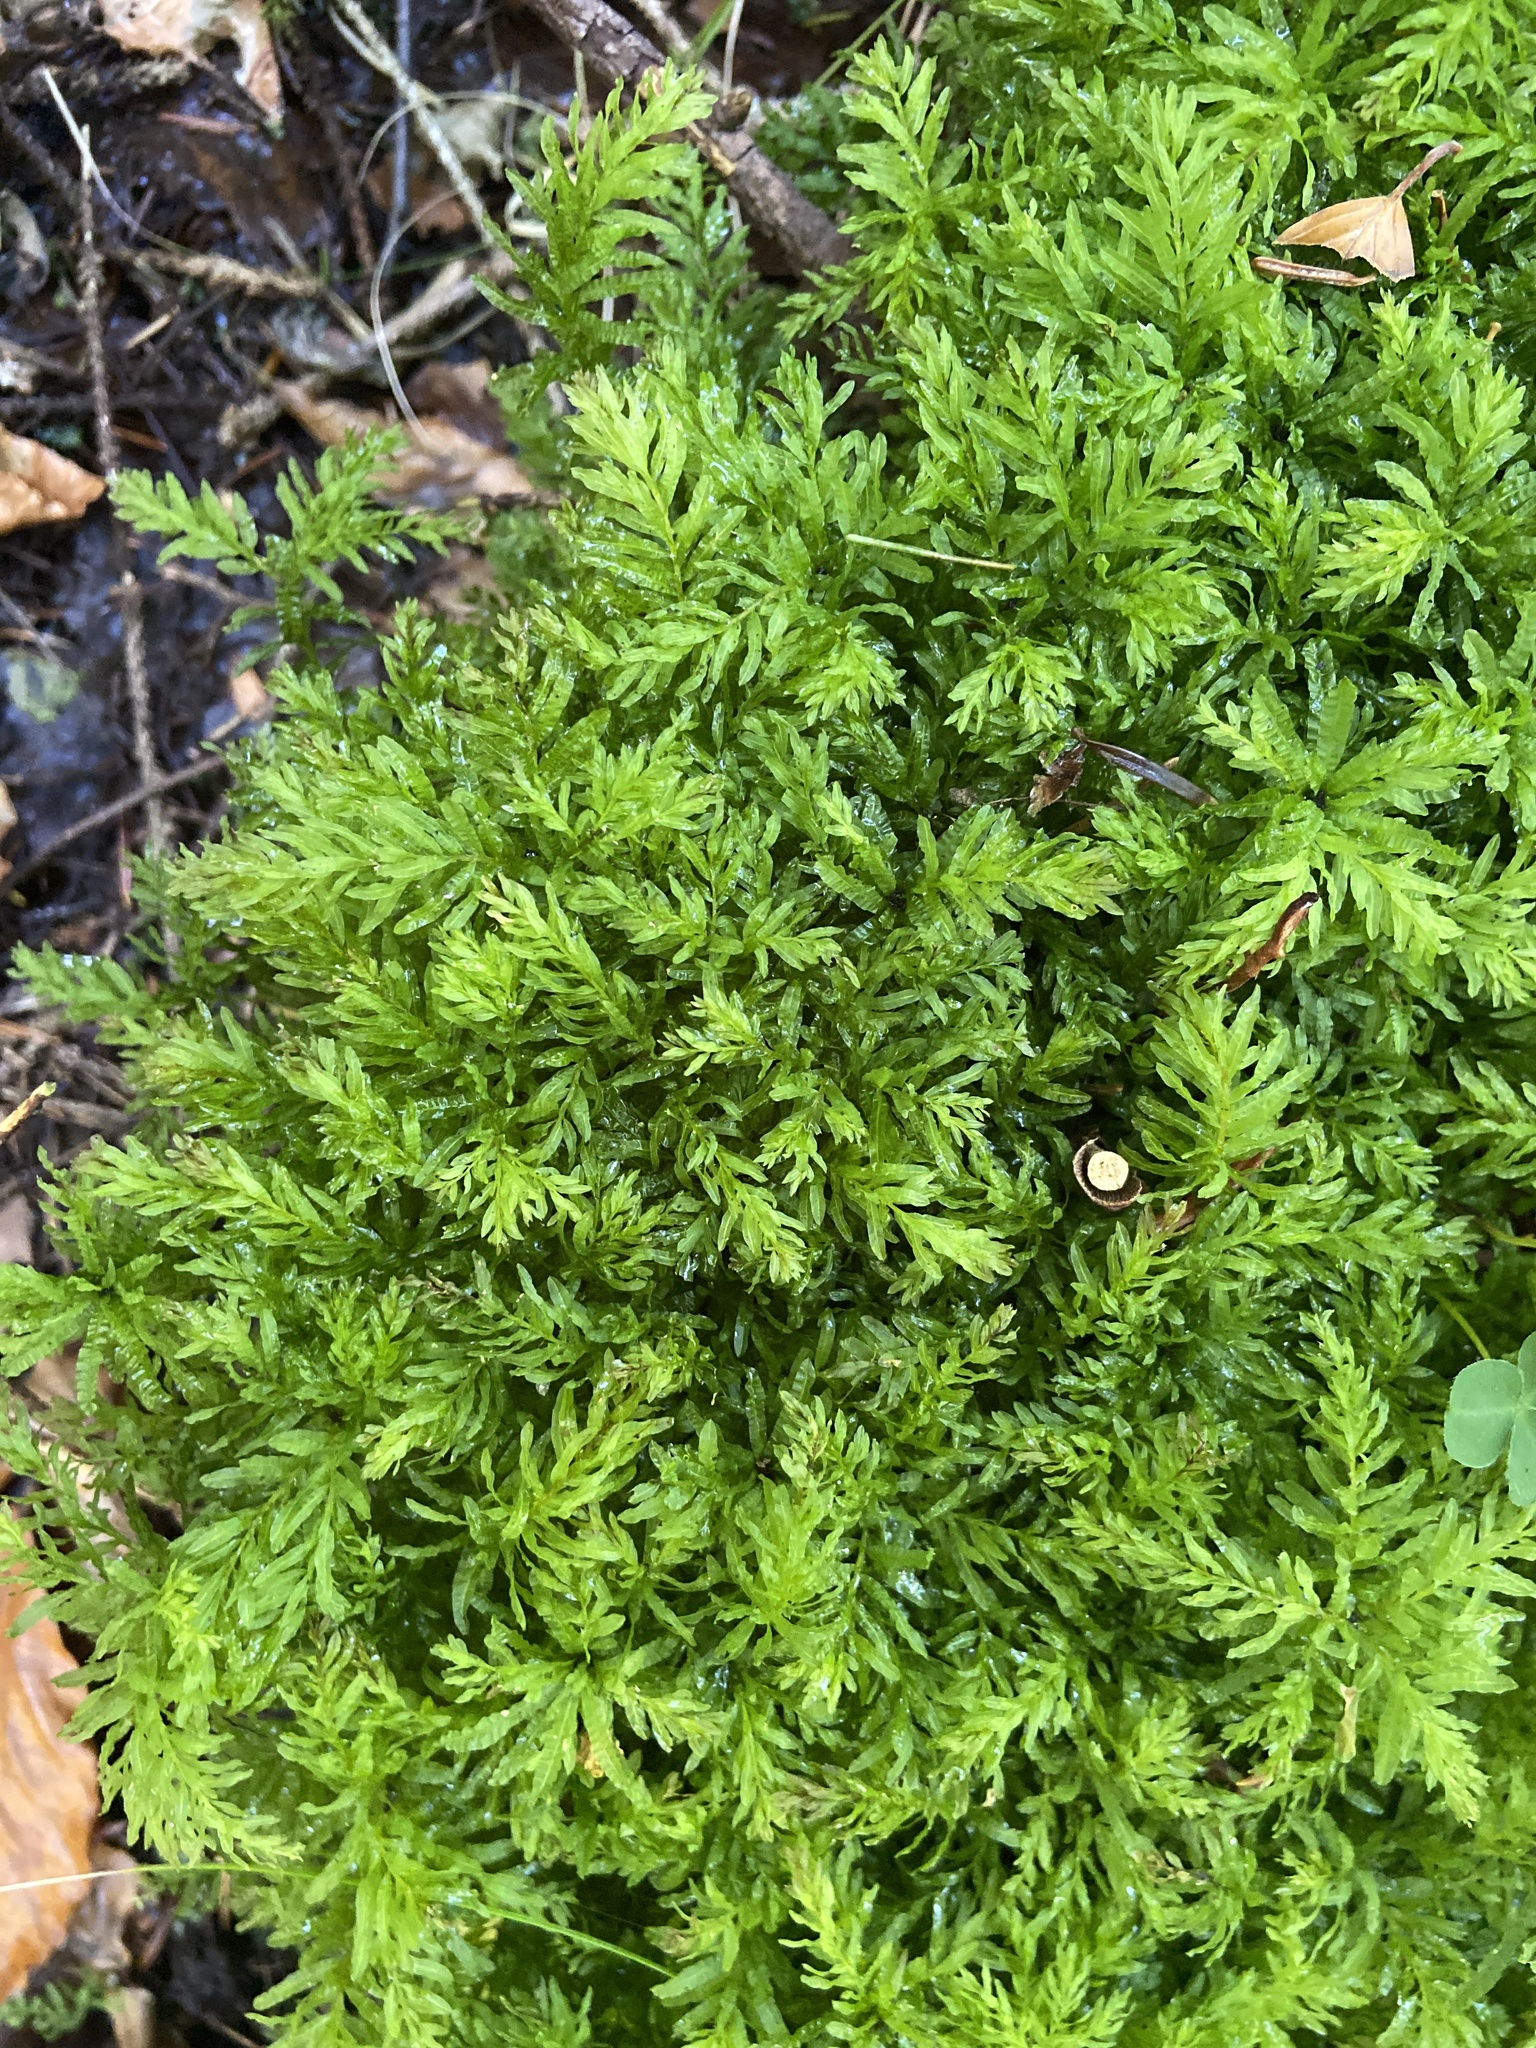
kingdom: Plantae
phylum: Bryophyta
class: Bryopsida
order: Bryales
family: Mniaceae
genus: Plagiomnium
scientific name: Plagiomnium undulatum
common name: Hart's-tongue thyme-moss
